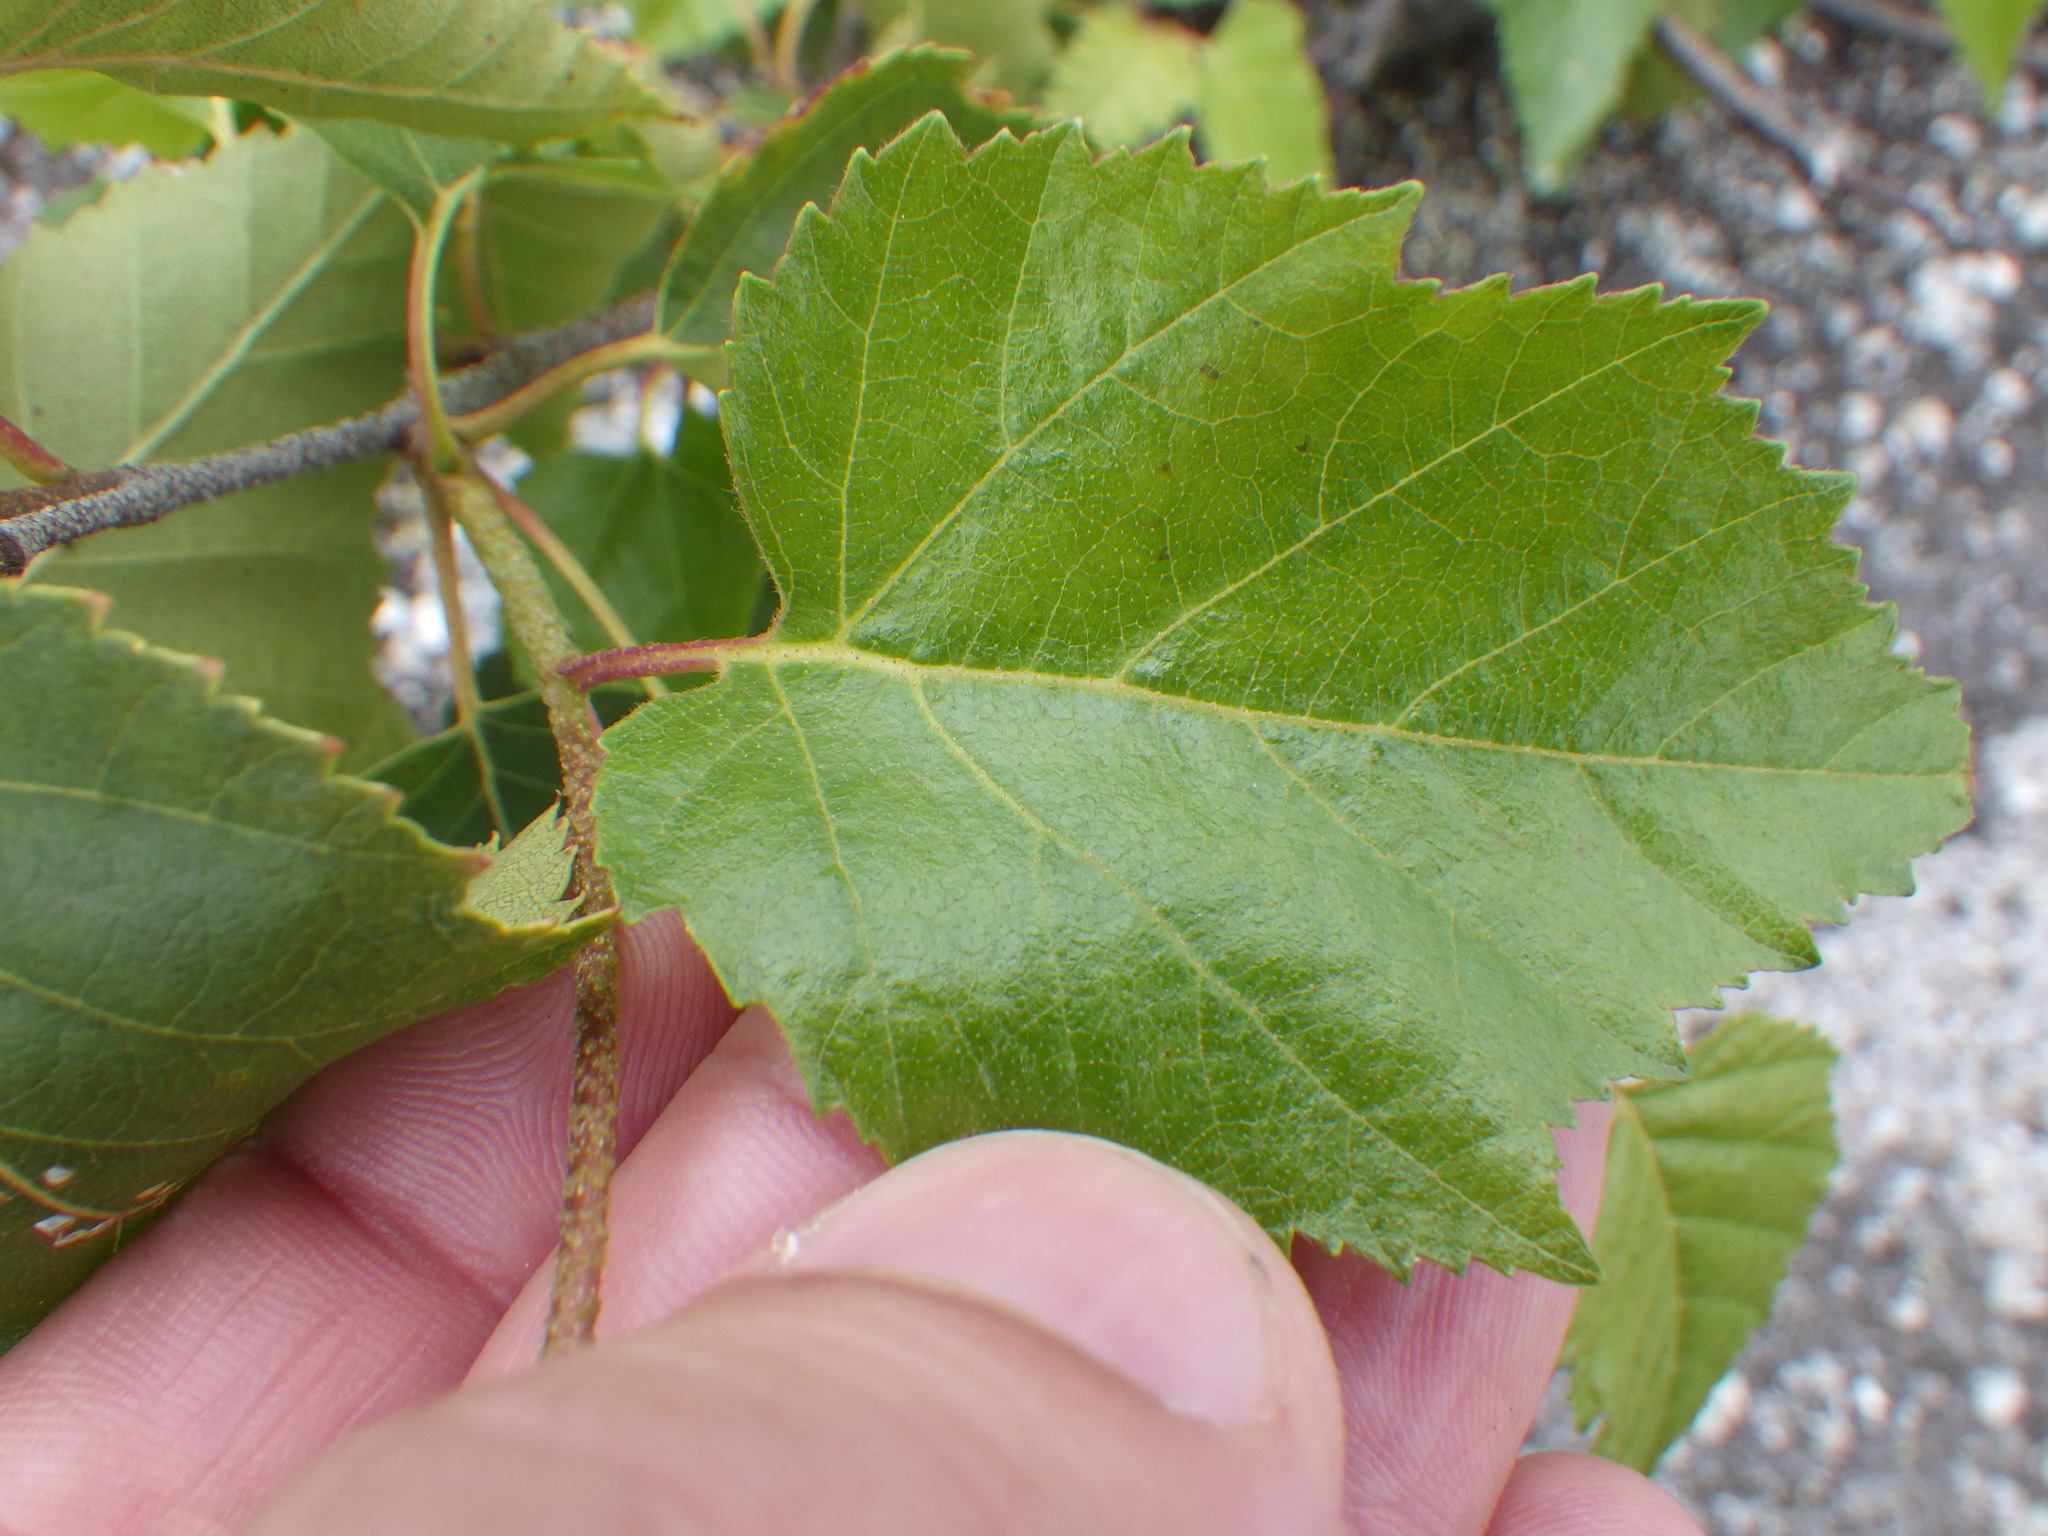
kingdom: Plantae
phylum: Tracheophyta
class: Magnoliopsida
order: Fagales
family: Betulaceae
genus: Betula
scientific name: Betula populifolia
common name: Fire birch
